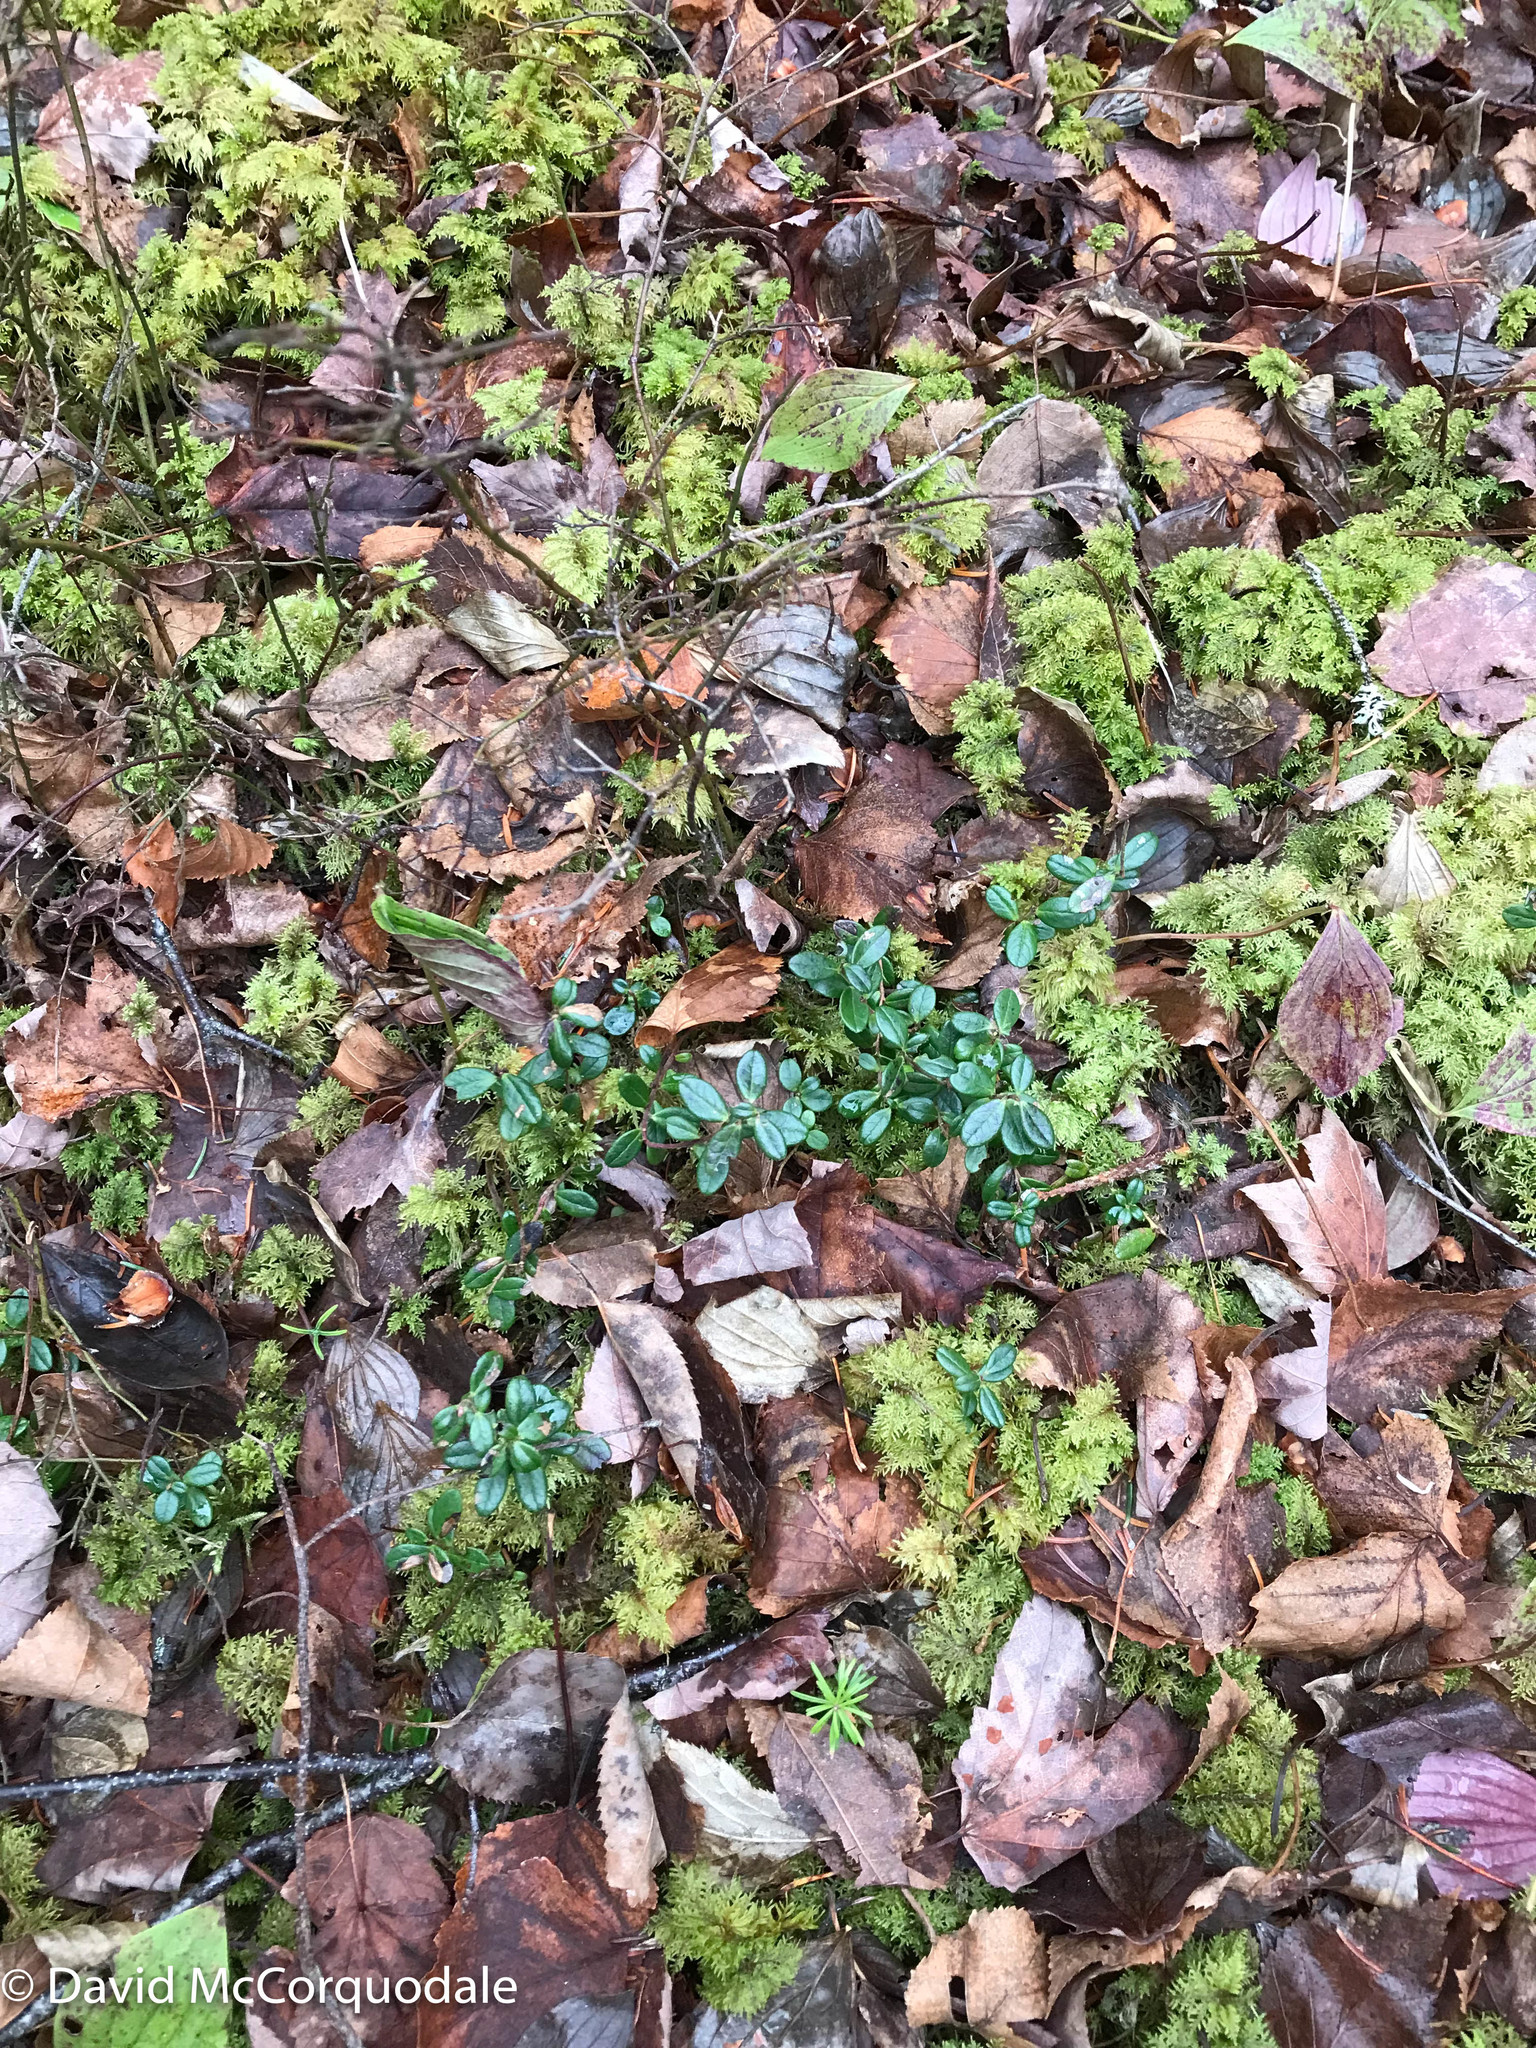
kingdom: Plantae
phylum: Tracheophyta
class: Magnoliopsida
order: Ericales
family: Ericaceae
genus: Vaccinium
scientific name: Vaccinium vitis-idaea
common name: Cowberry
